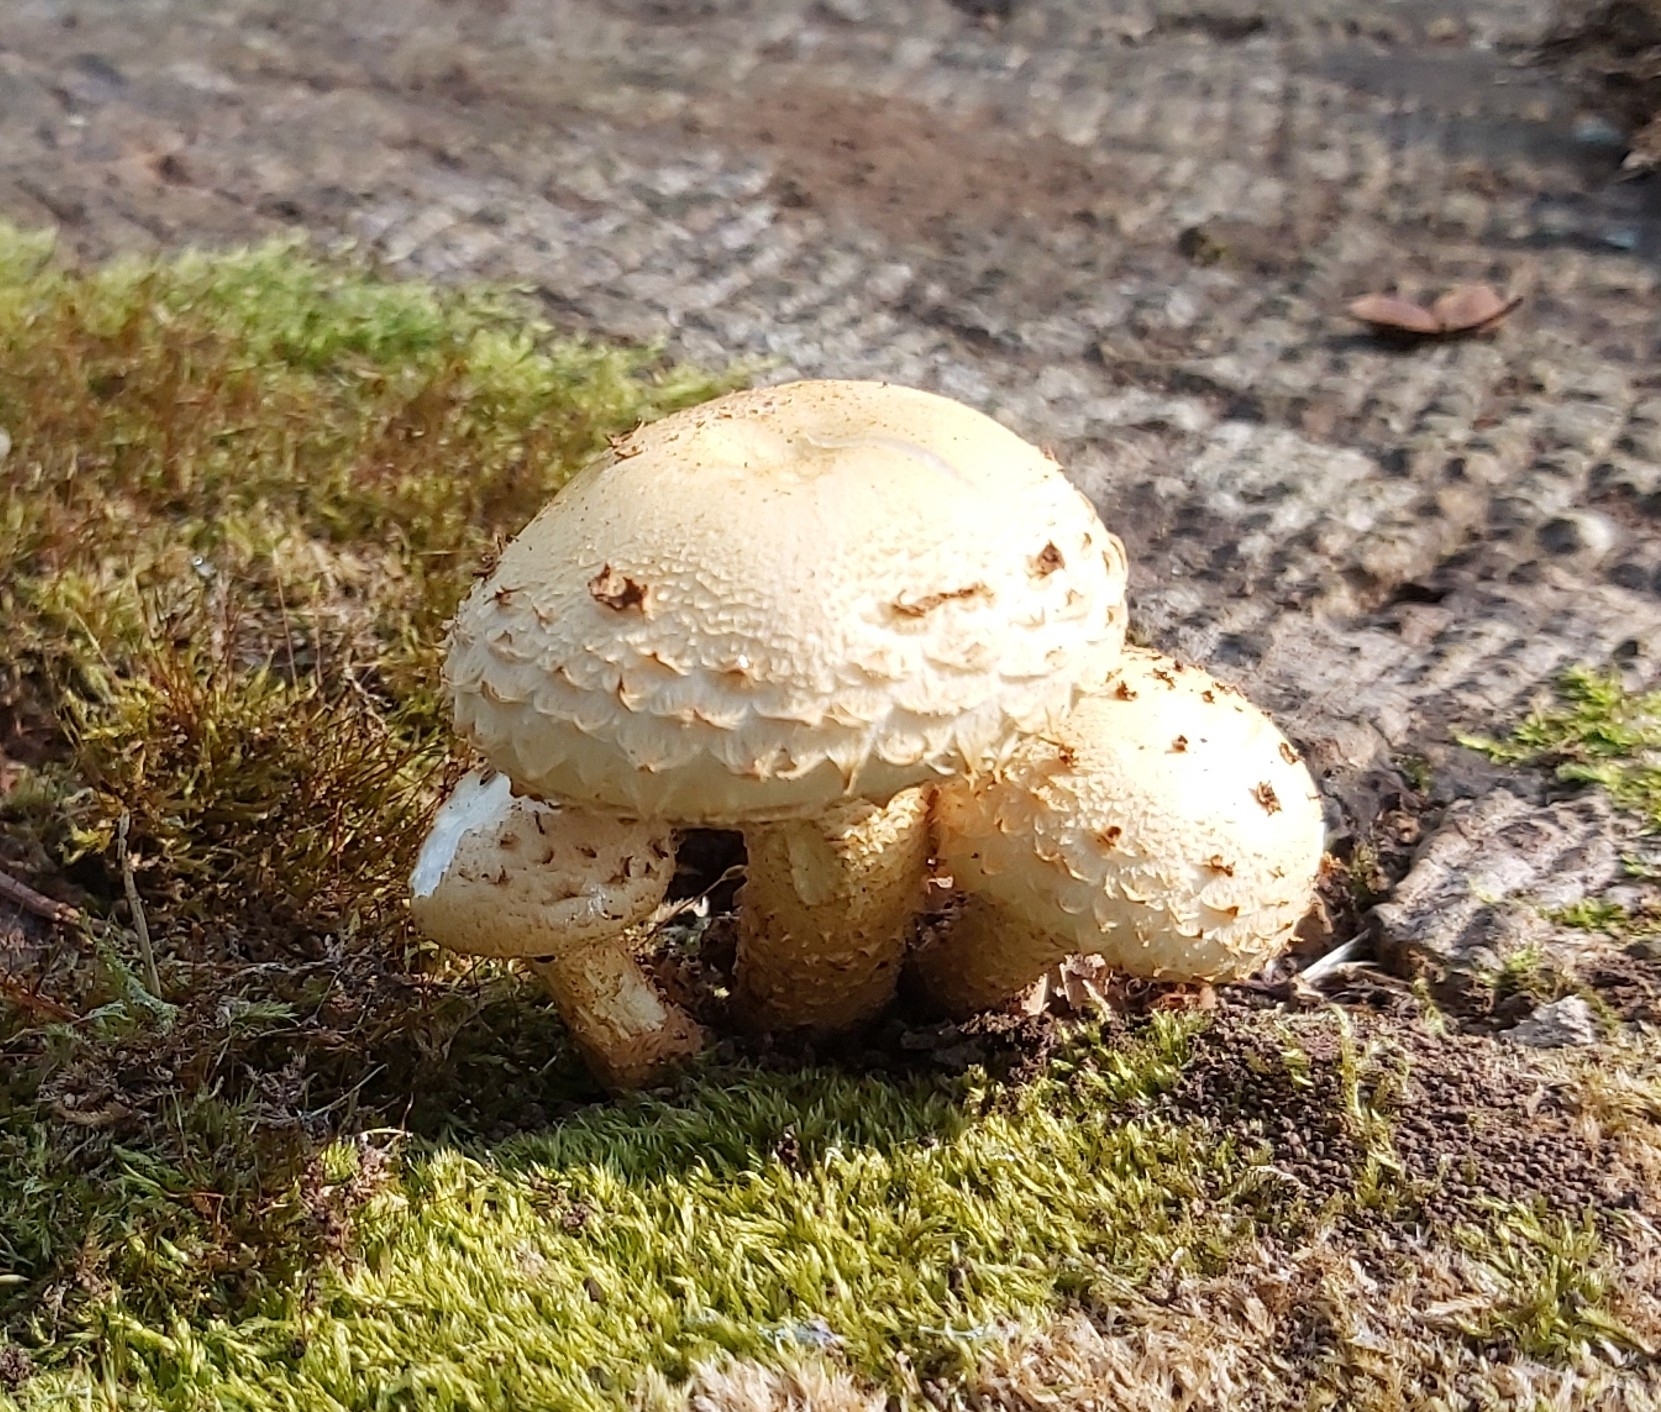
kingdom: Fungi
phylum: Basidiomycota
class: Agaricomycetes
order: Agaricales
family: Strophariaceae
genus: Pholiota
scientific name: Pholiota squarrosa
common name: Shaggy pholiota
